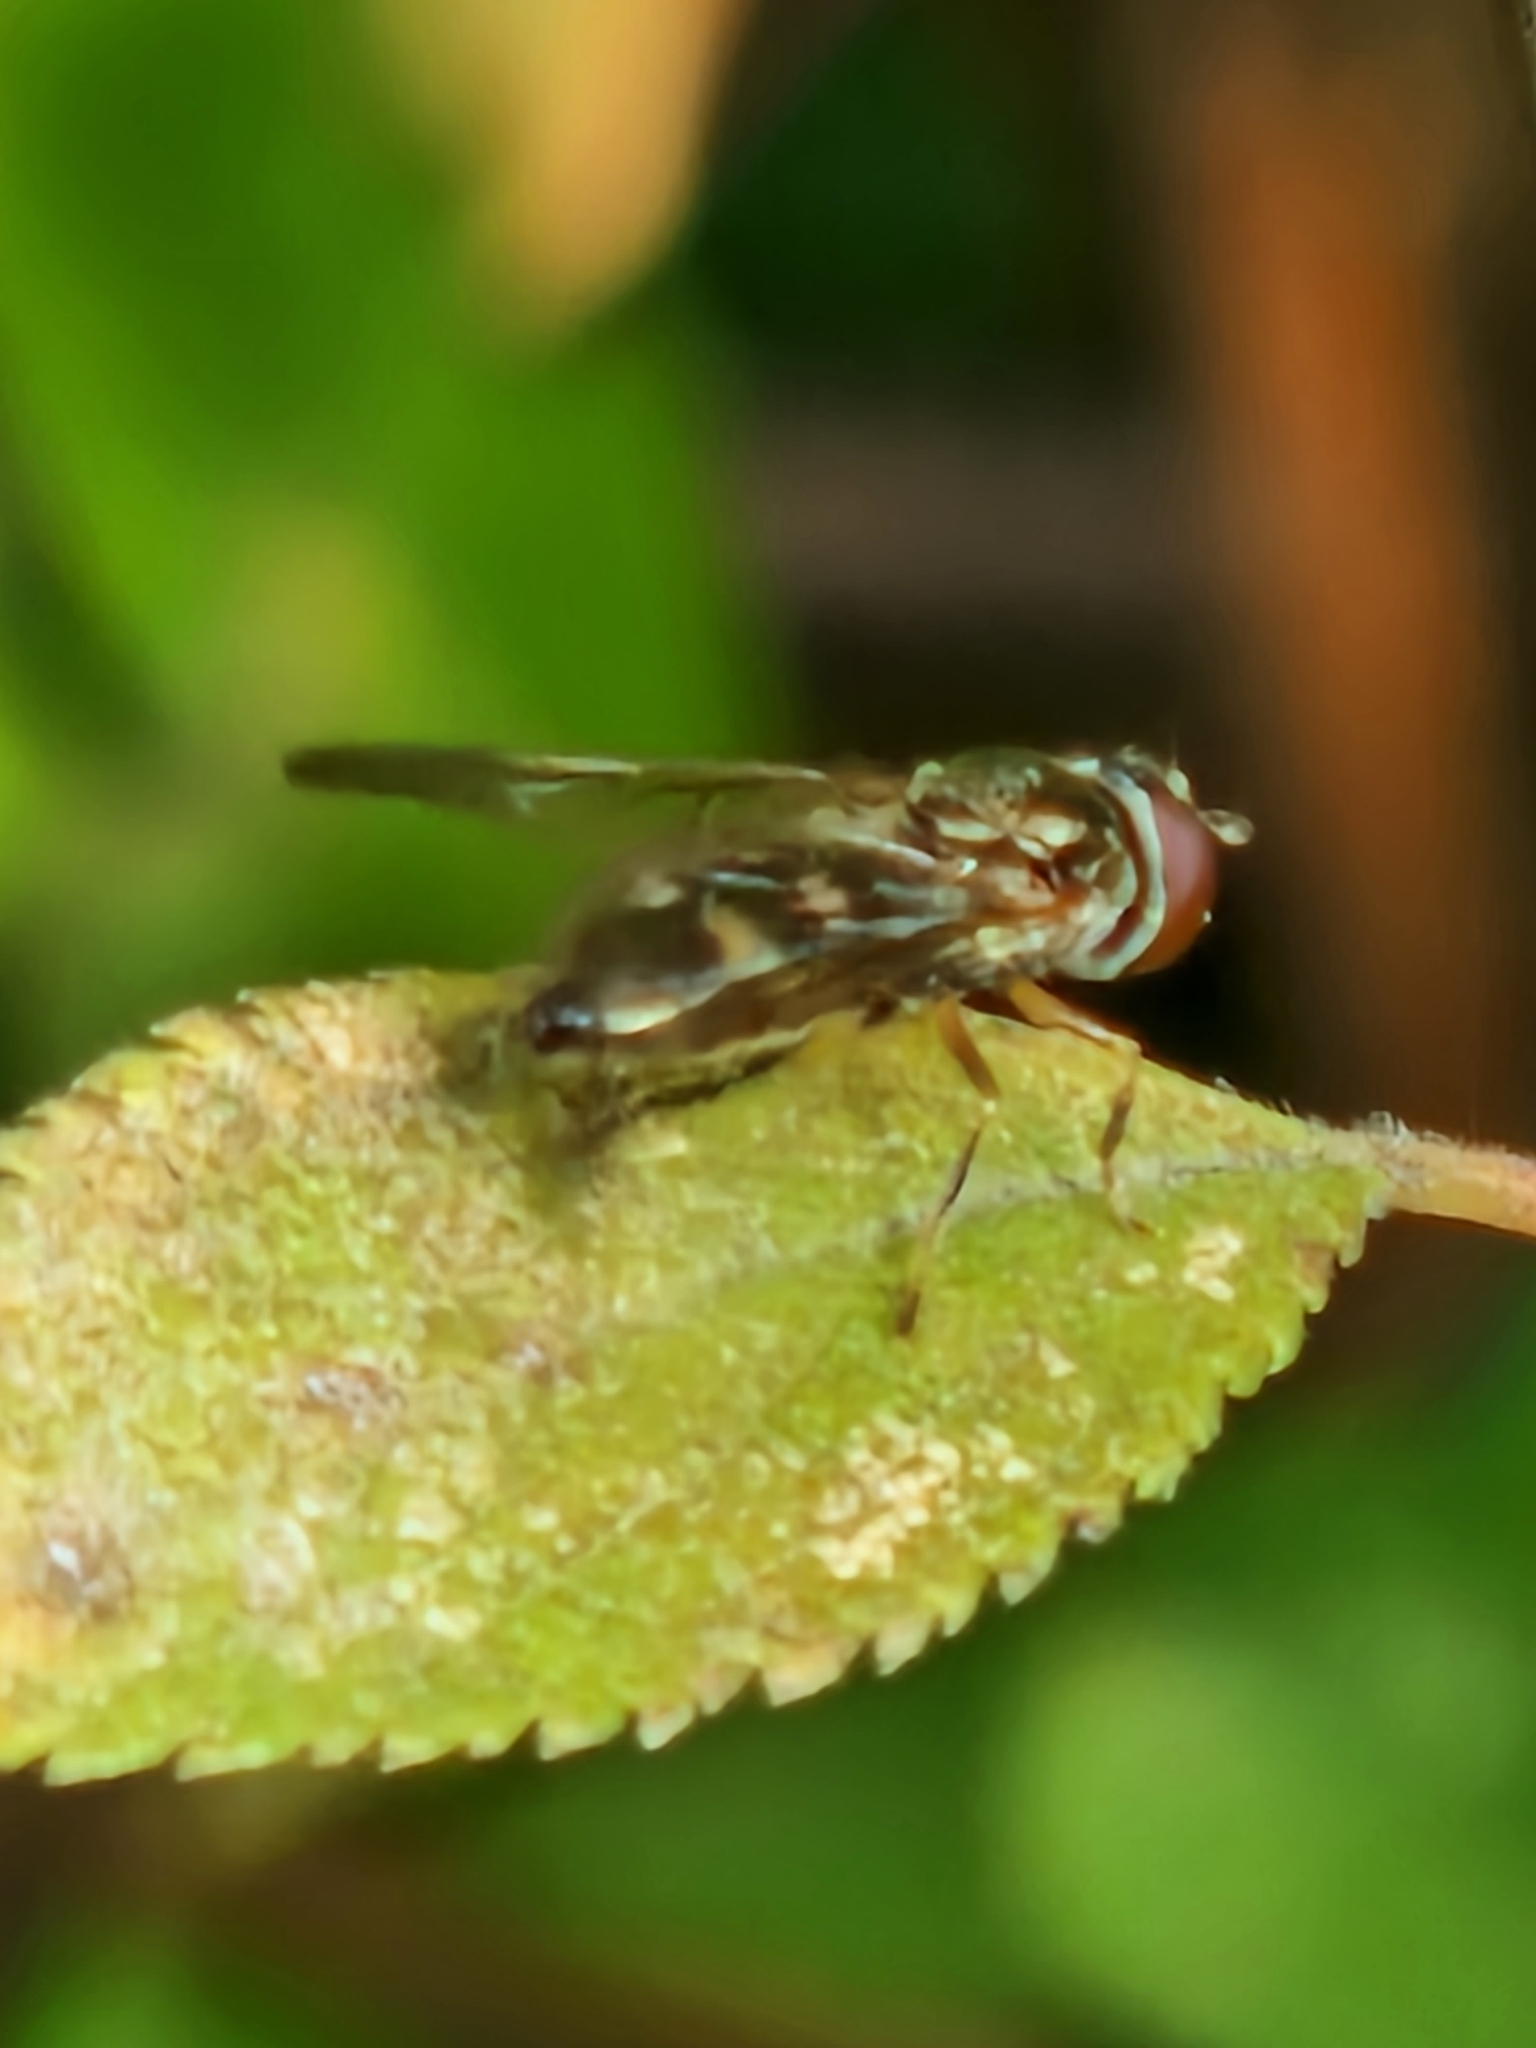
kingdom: Animalia
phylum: Arthropoda
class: Insecta
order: Diptera
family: Syrphidae
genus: Platycheirus
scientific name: Platycheirus
